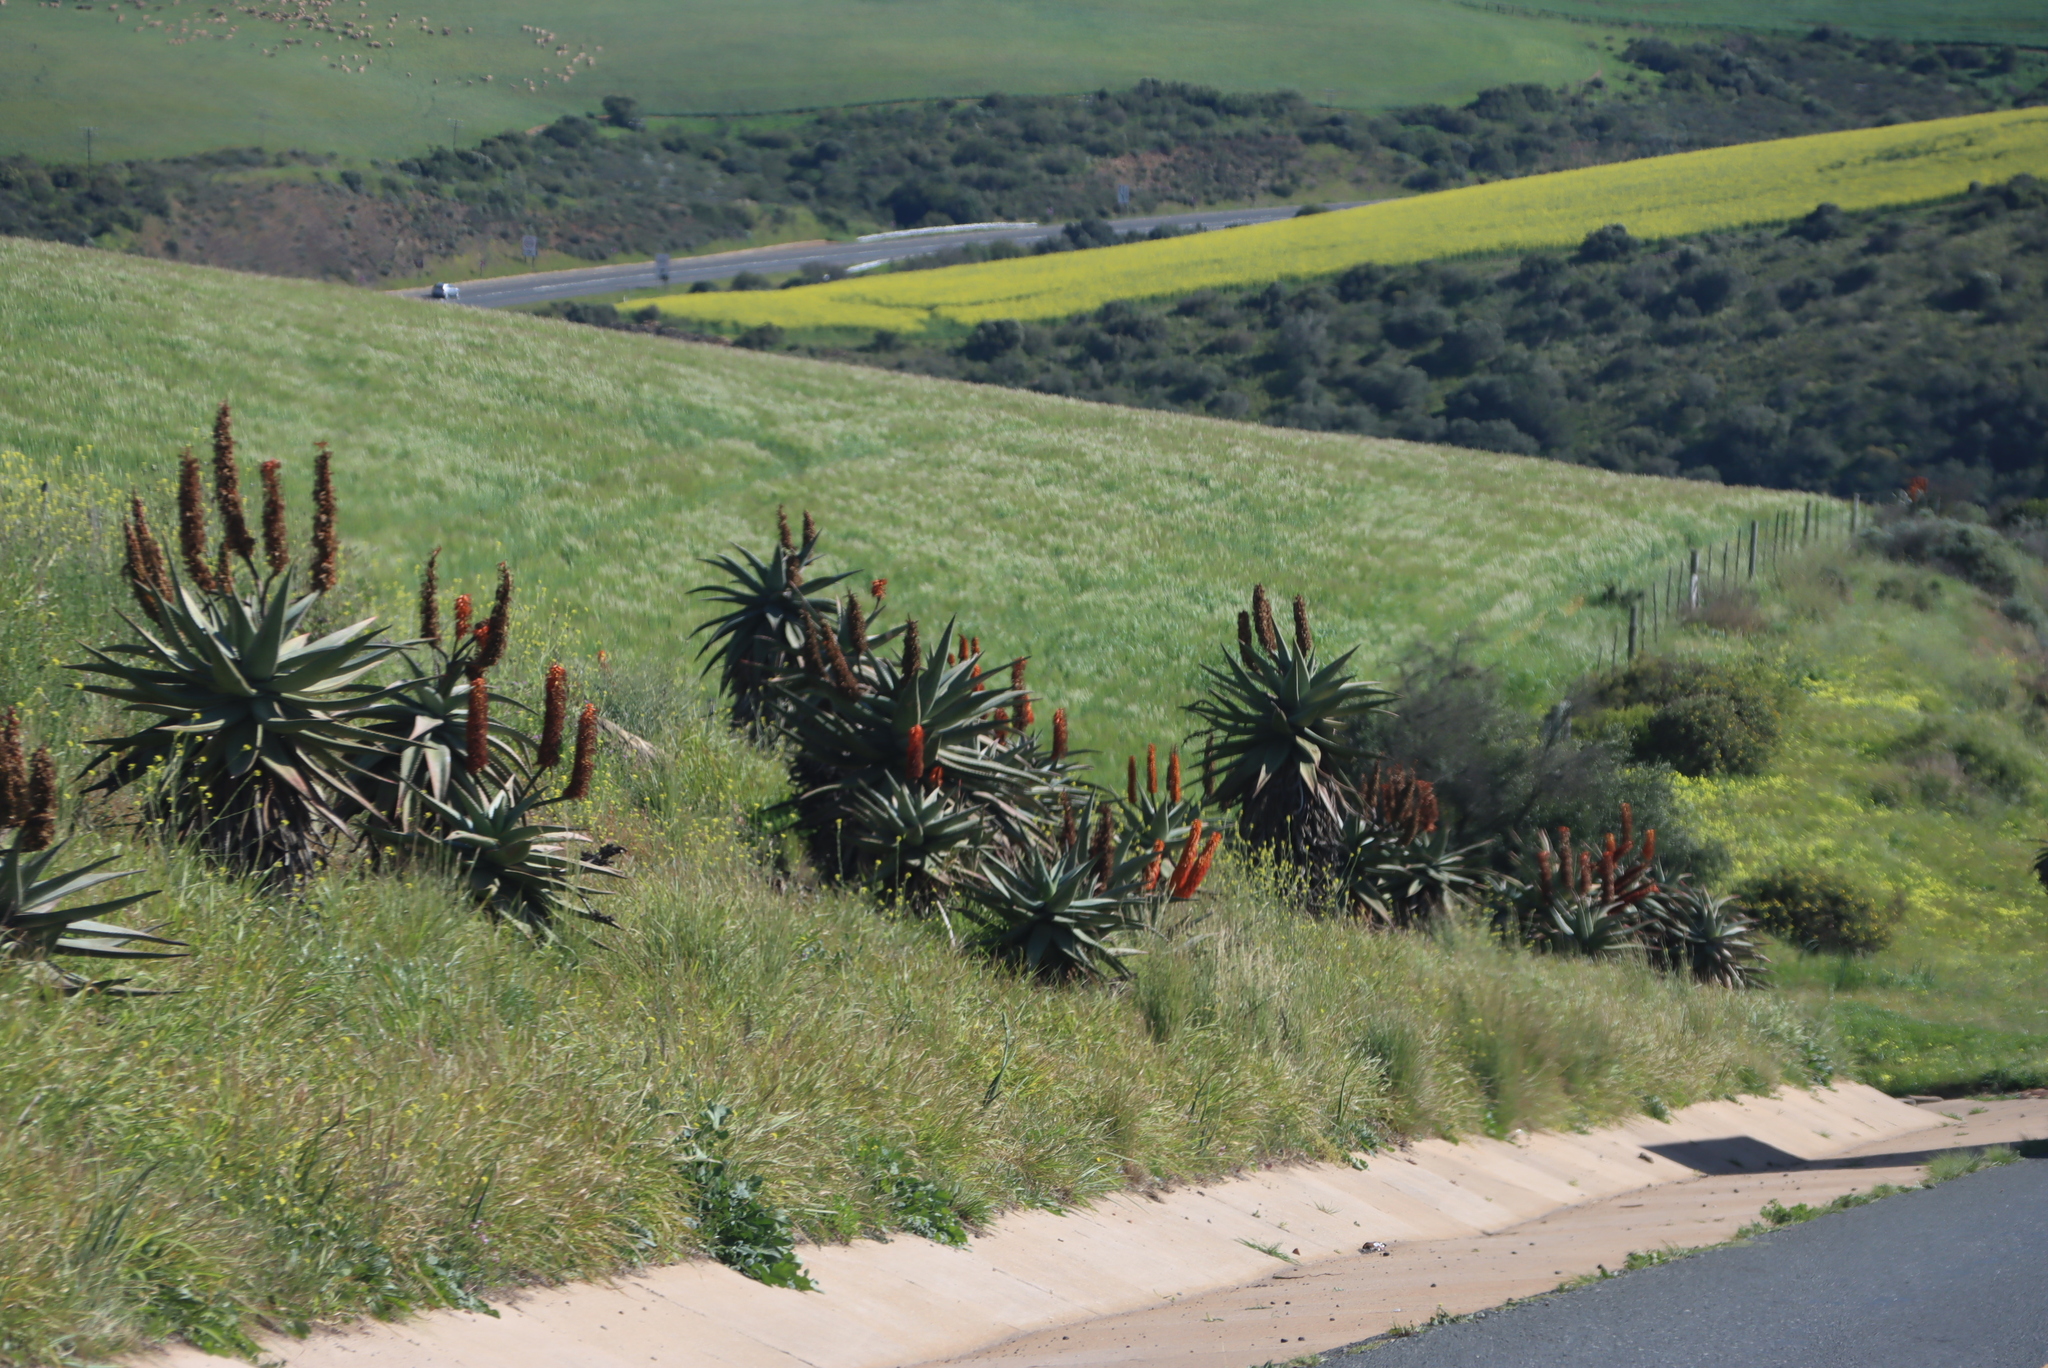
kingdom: Plantae
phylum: Tracheophyta
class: Liliopsida
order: Asparagales
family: Asphodelaceae
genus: Aloe
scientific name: Aloe ferox
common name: Bitter aloe
